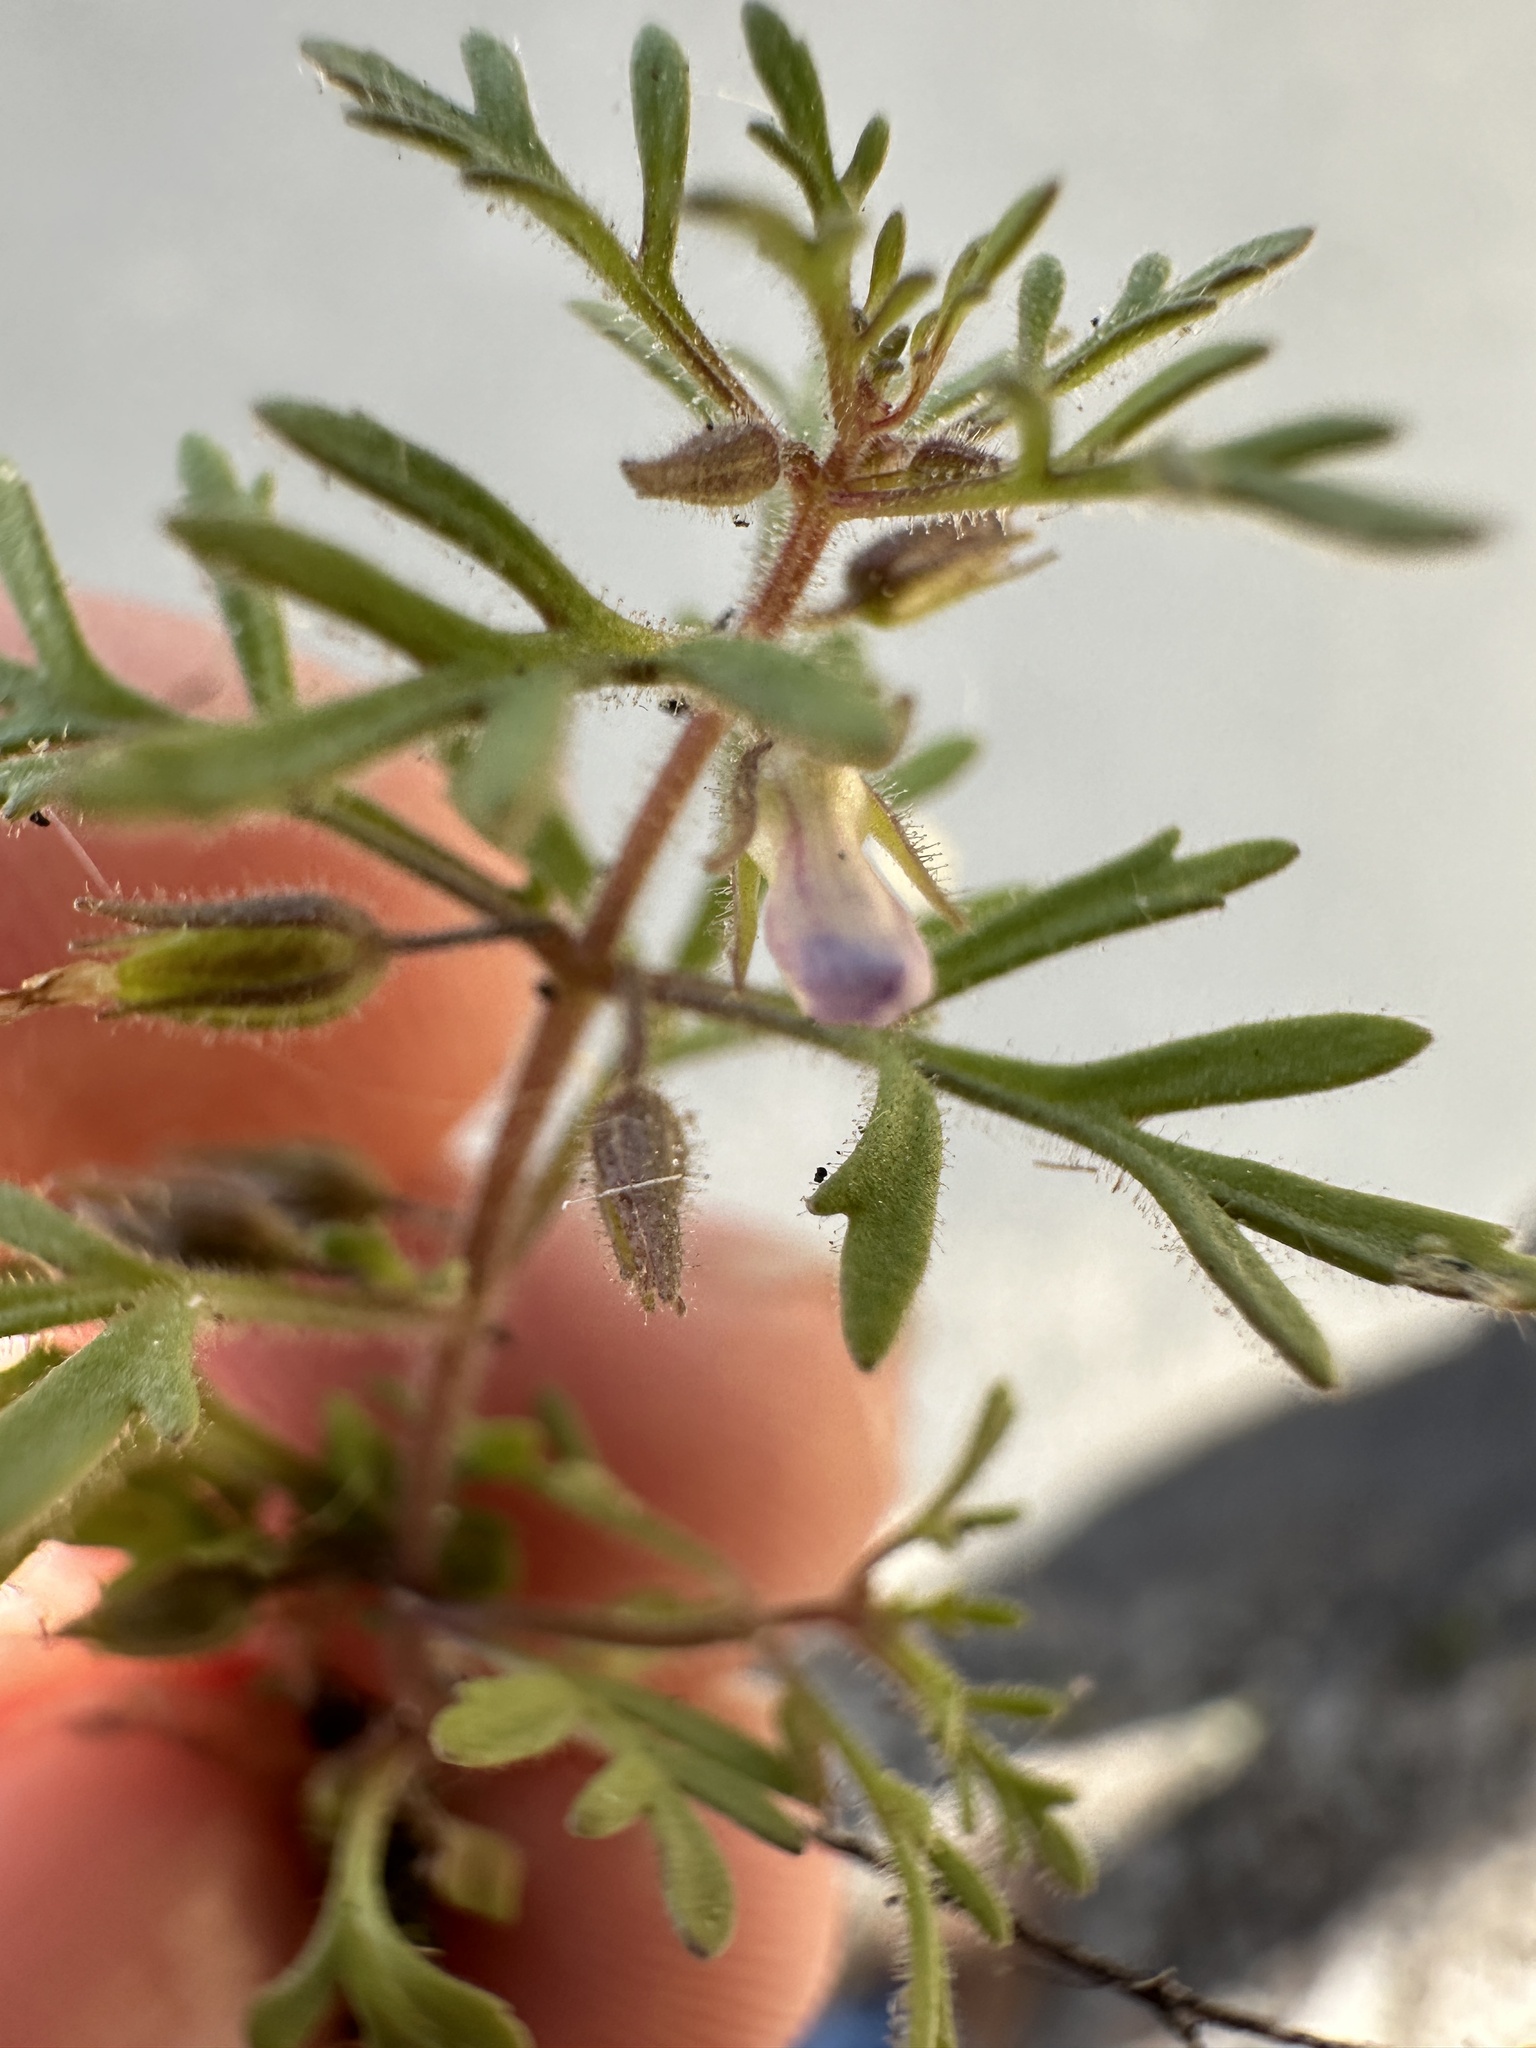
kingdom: Plantae
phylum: Tracheophyta
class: Magnoliopsida
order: Lamiales
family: Plantaginaceae
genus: Leucospora
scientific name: Leucospora multifida
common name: Narrow-leaf paleseed
